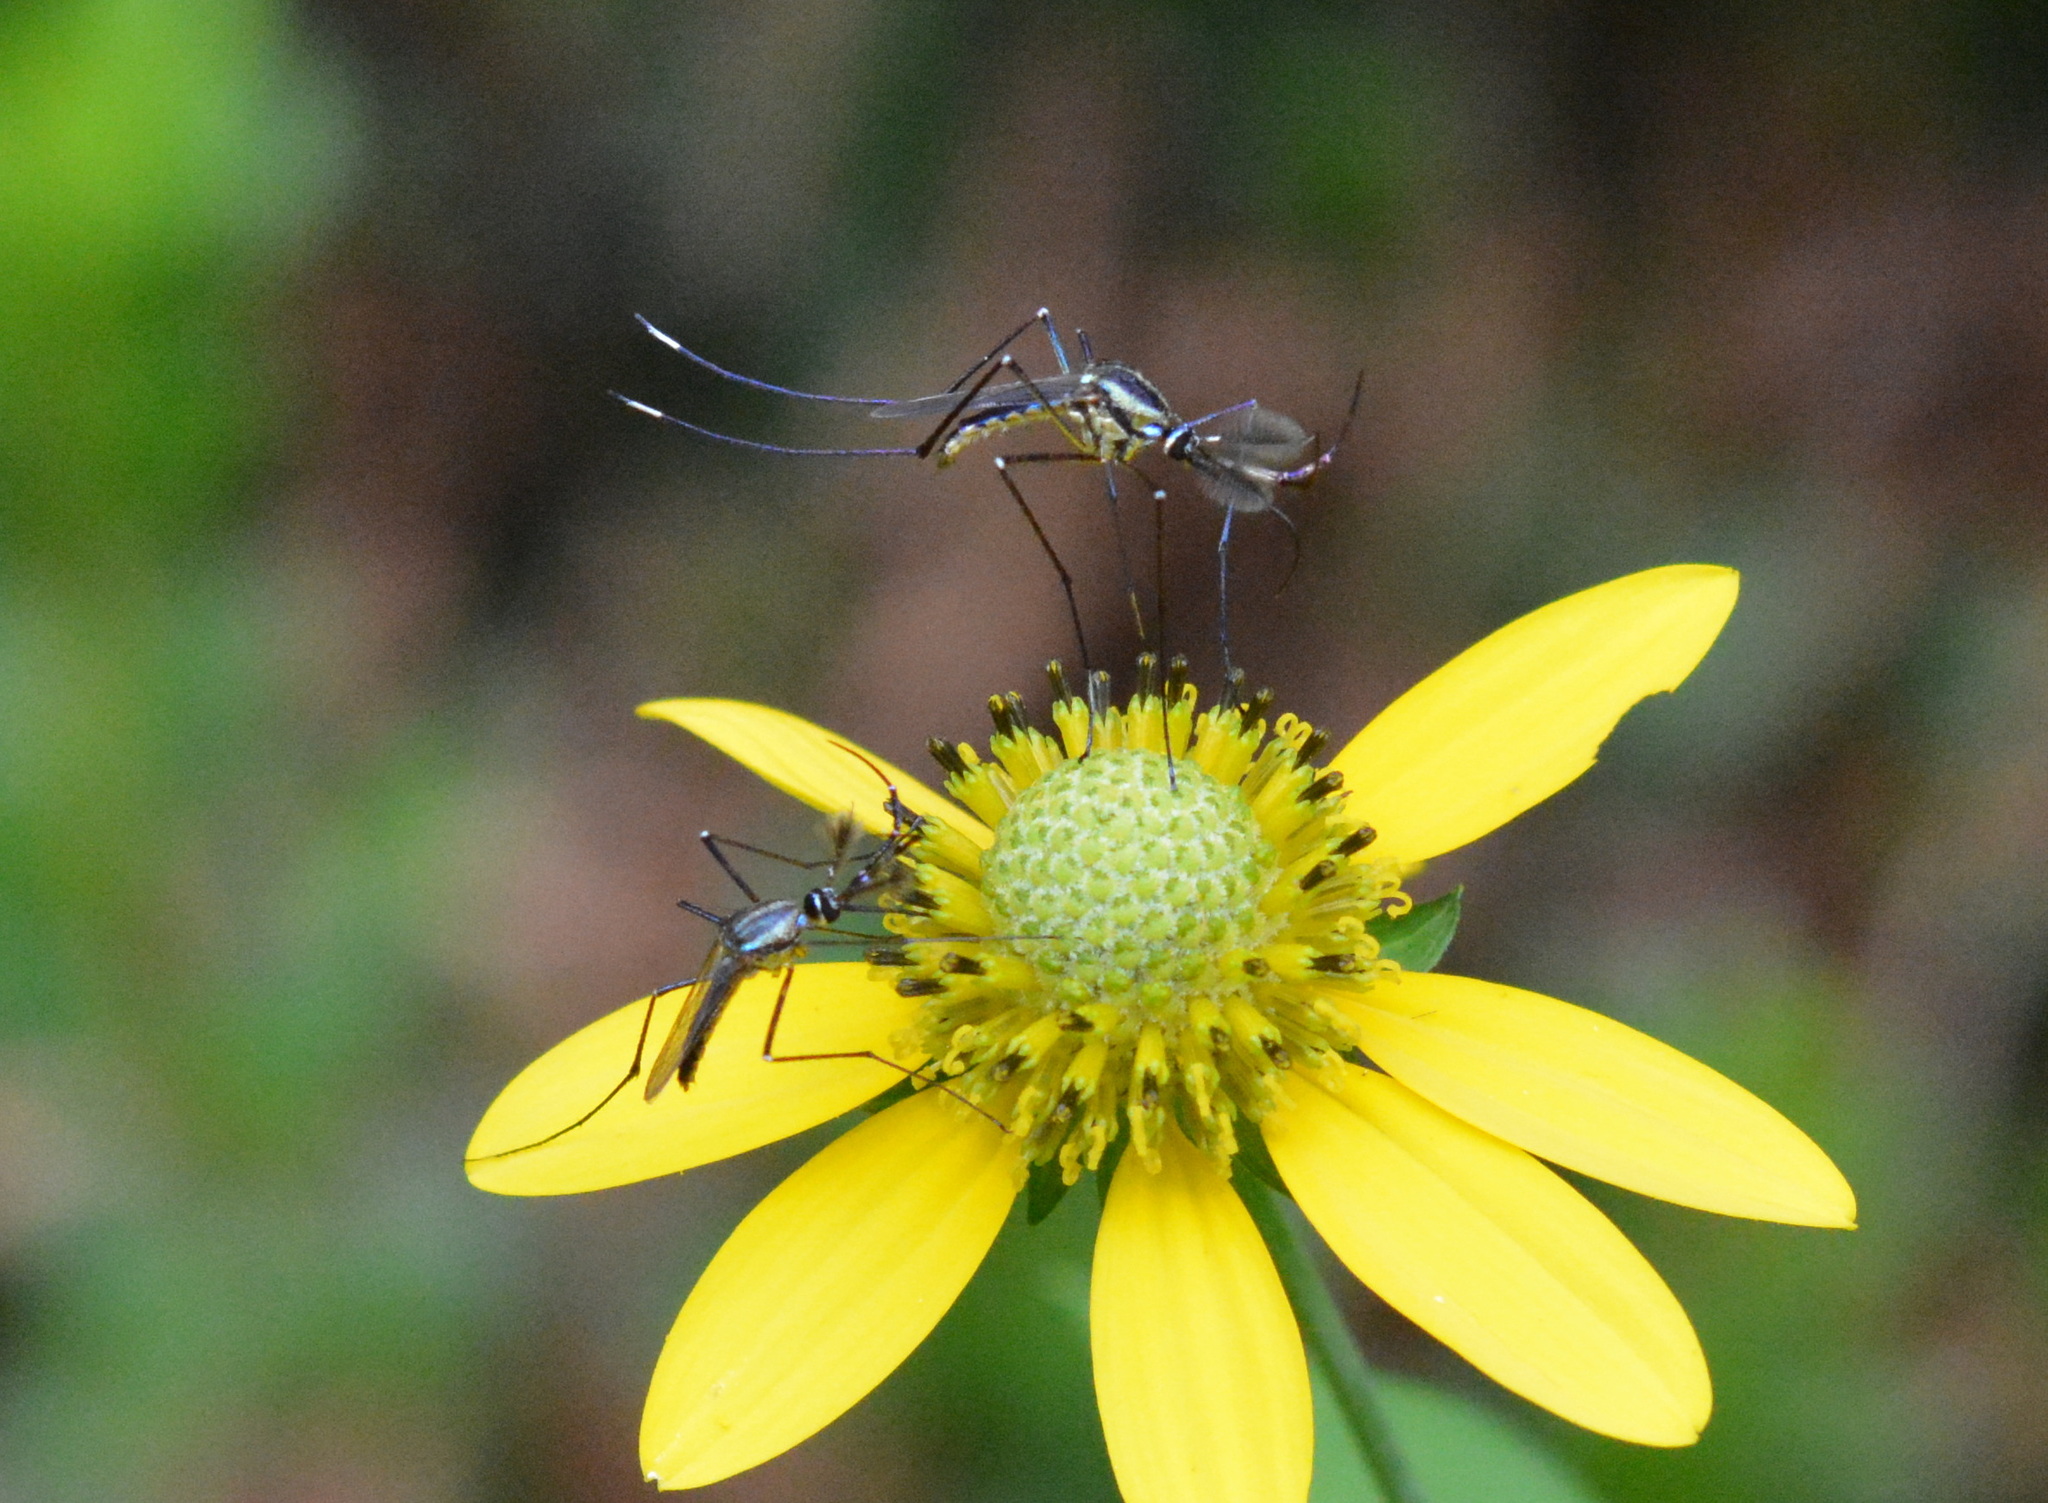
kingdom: Animalia
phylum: Arthropoda
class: Insecta
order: Diptera
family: Culicidae
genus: Toxorhynchites
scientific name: Toxorhynchites rutilus
